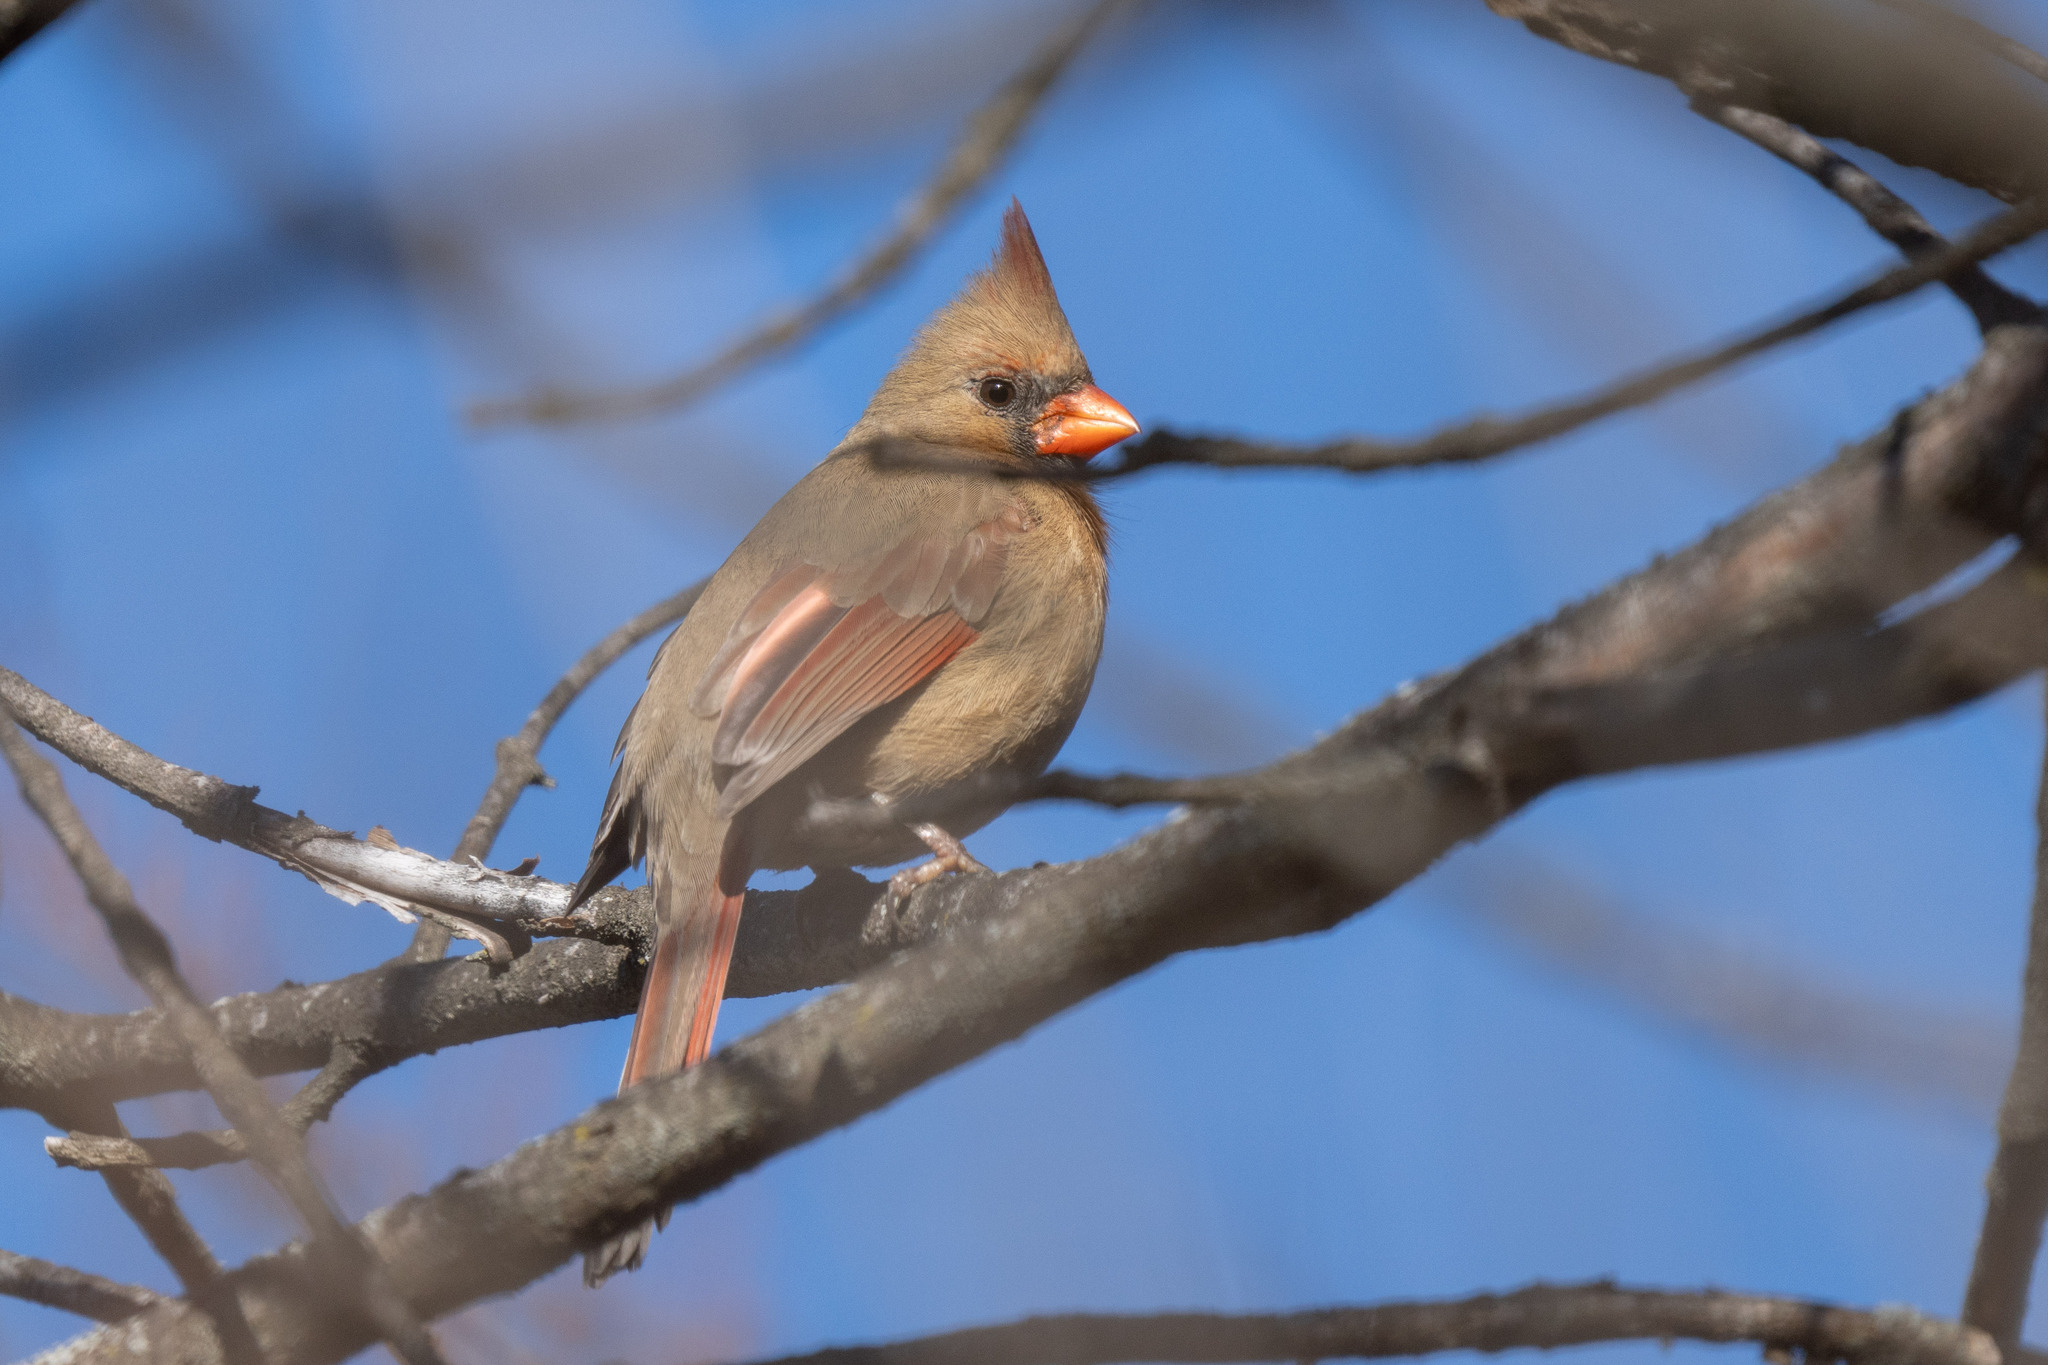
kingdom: Animalia
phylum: Chordata
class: Aves
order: Passeriformes
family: Cardinalidae
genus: Cardinalis
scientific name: Cardinalis cardinalis
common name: Northern cardinal
